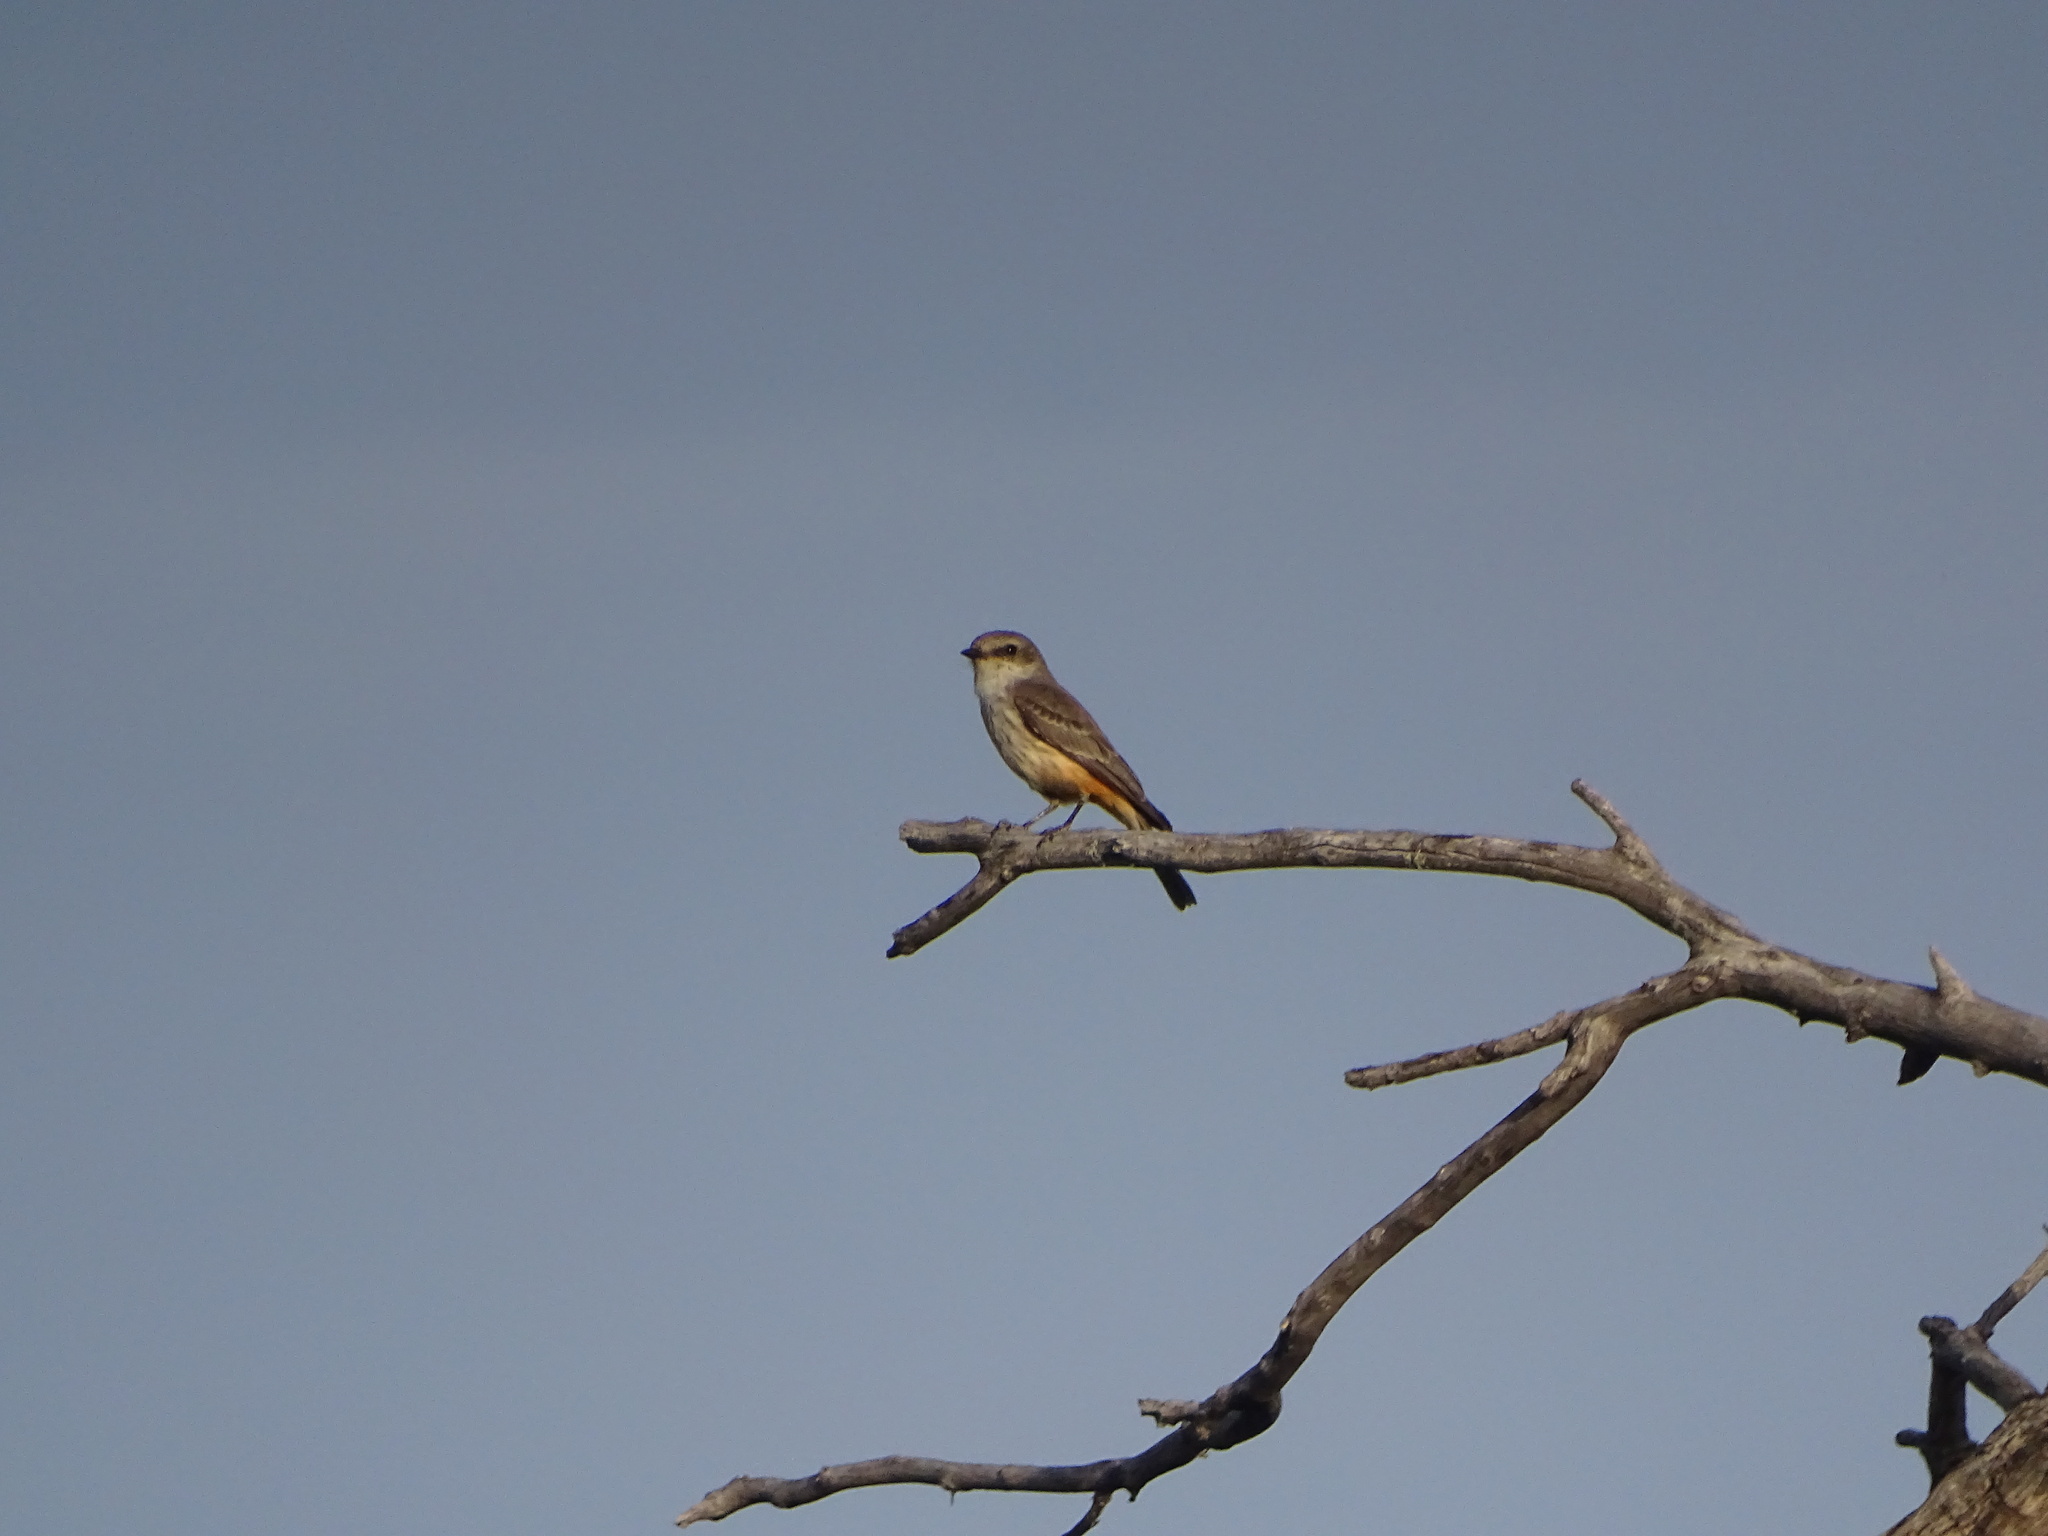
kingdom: Animalia
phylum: Chordata
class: Aves
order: Passeriformes
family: Tyrannidae
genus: Pyrocephalus
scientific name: Pyrocephalus rubinus
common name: Vermilion flycatcher
